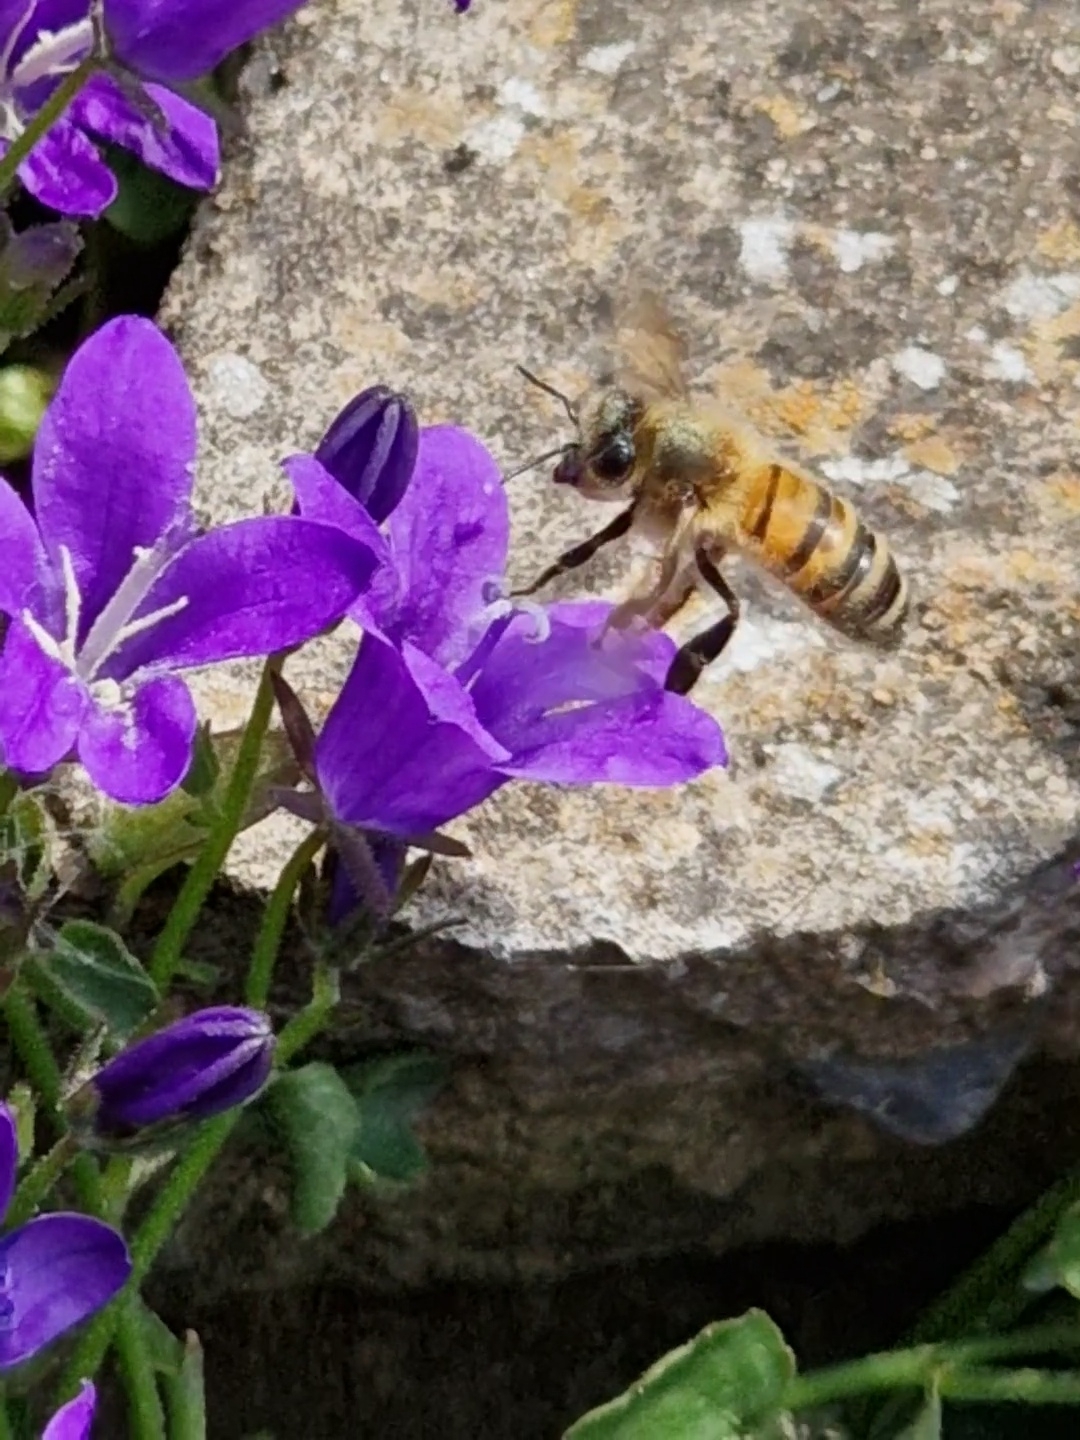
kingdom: Animalia
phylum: Arthropoda
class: Insecta
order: Hymenoptera
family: Apidae
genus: Apis
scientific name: Apis mellifera
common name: Honey bee
